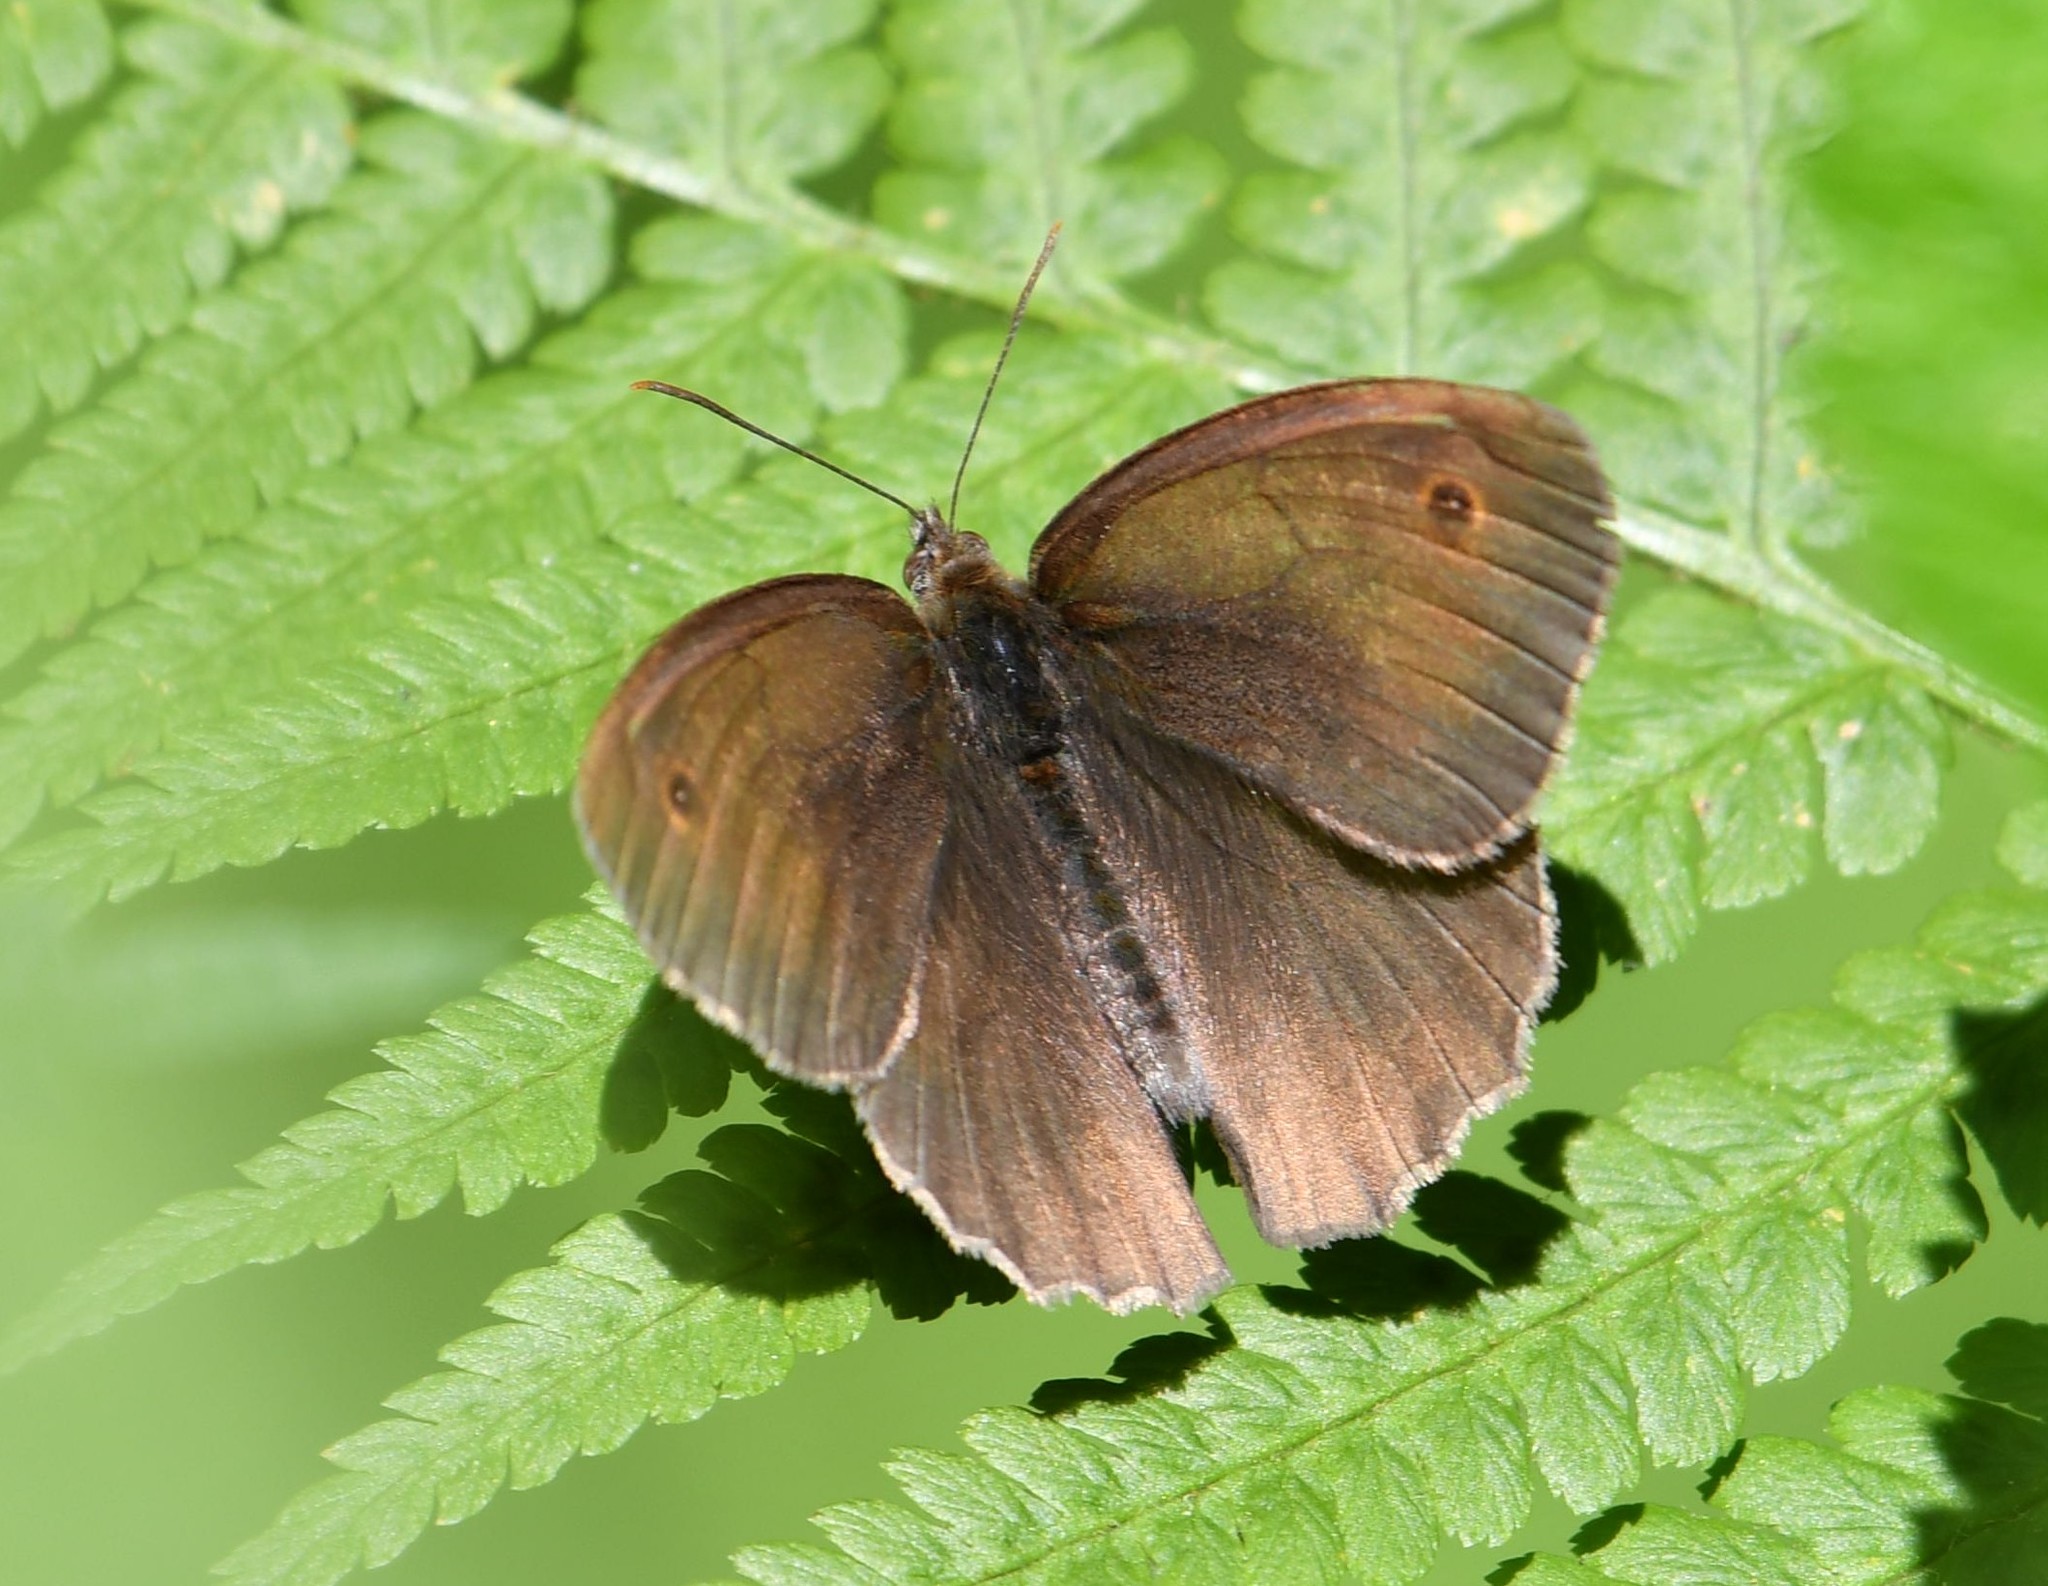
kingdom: Animalia
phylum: Arthropoda
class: Insecta
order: Lepidoptera
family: Nymphalidae
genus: Maniola
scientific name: Maniola jurtina
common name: Meadow brown
